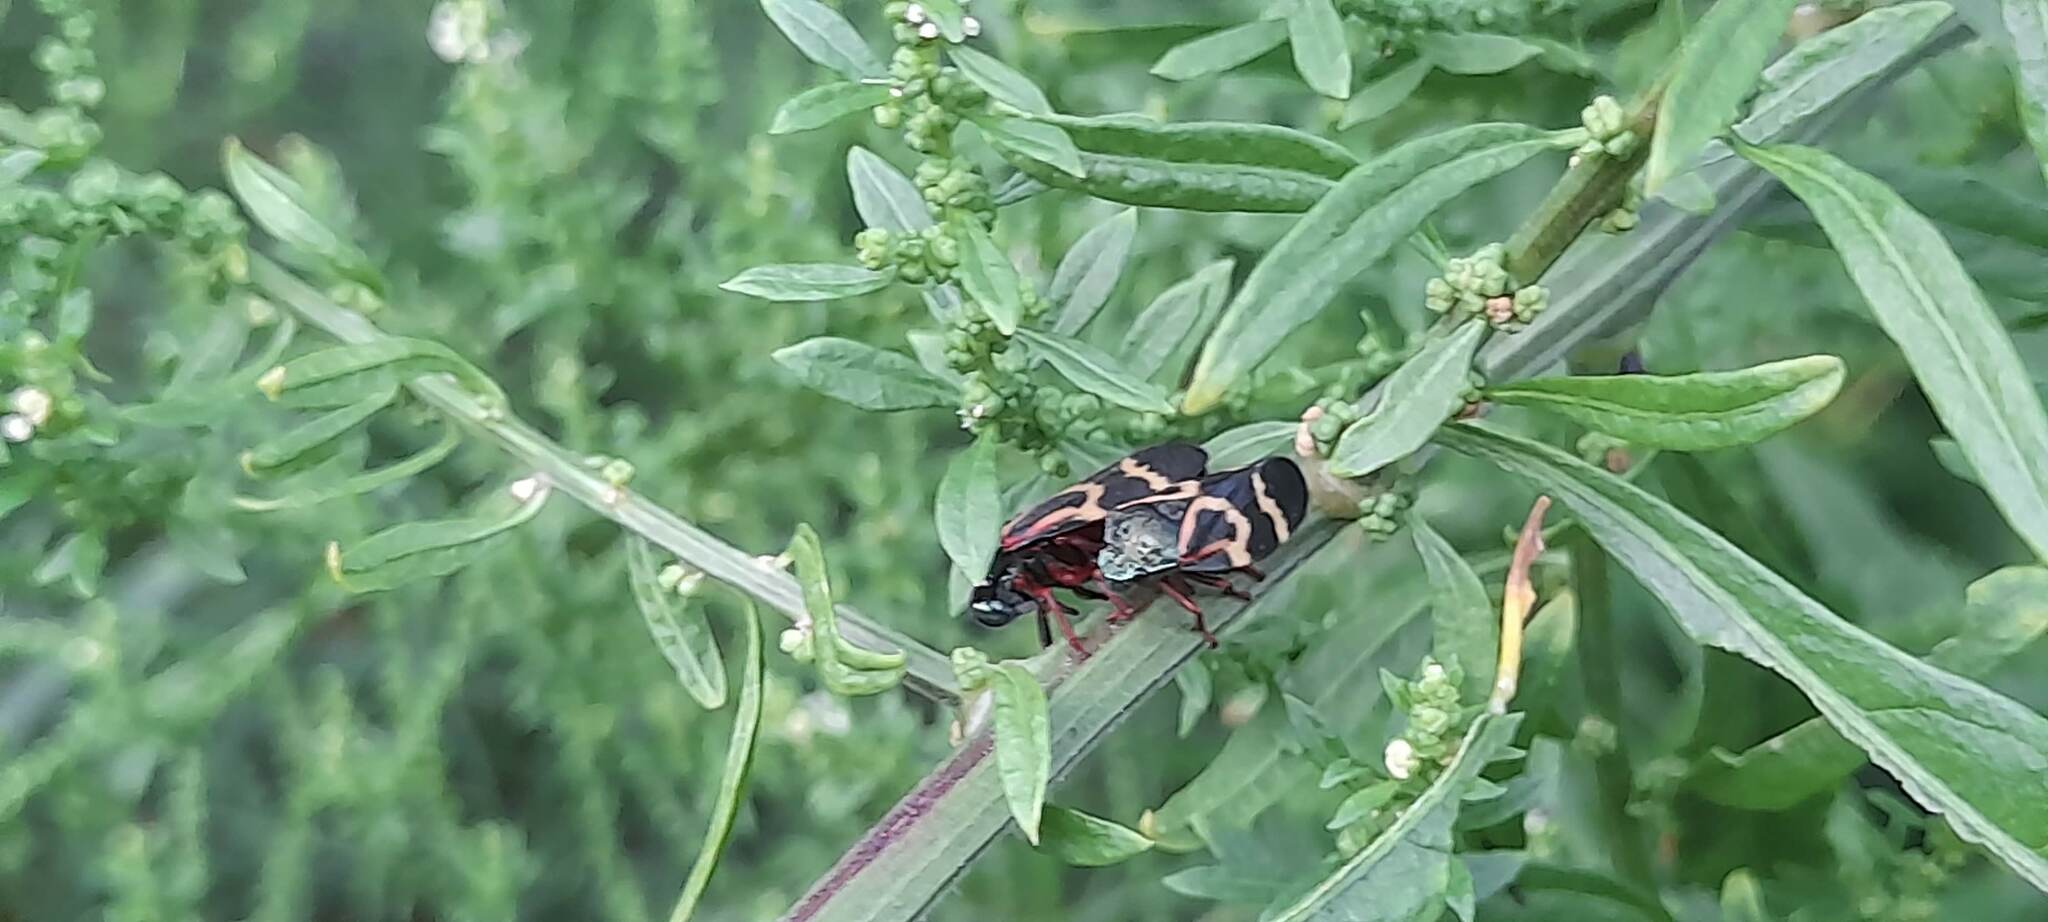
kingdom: Animalia
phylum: Arthropoda
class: Insecta
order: Hemiptera
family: Cercopidae
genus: Deois
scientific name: Deois flexuosa
